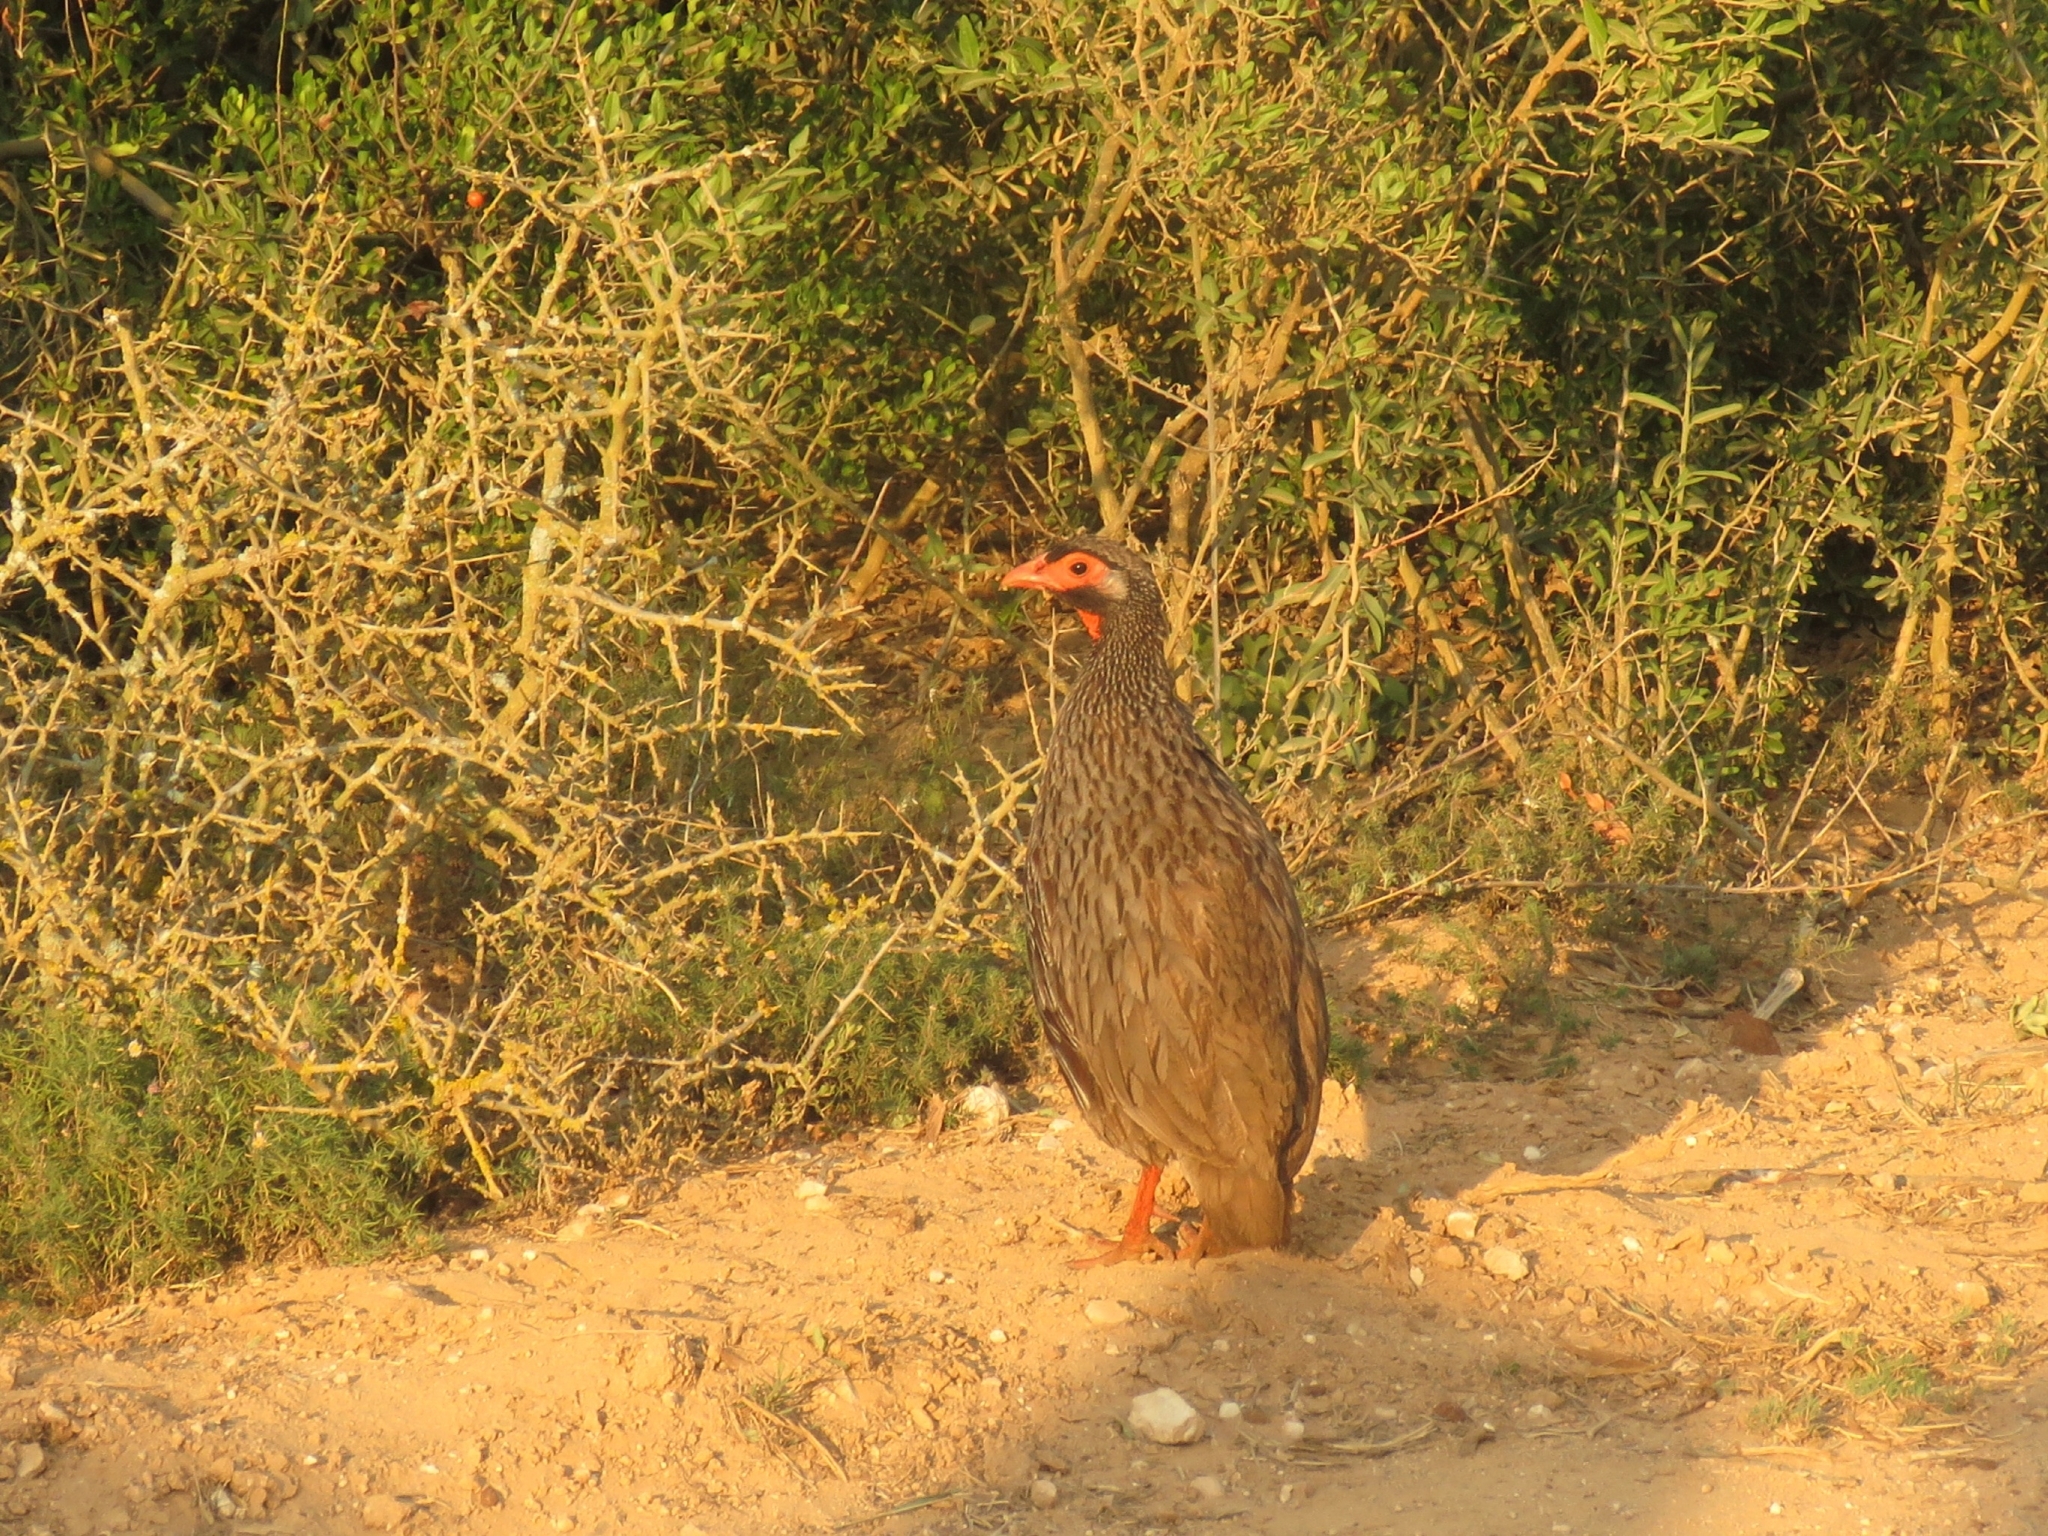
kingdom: Animalia
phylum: Chordata
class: Aves
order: Galliformes
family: Phasianidae
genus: Pternistis
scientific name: Pternistis afer
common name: Red-necked spurfowl
